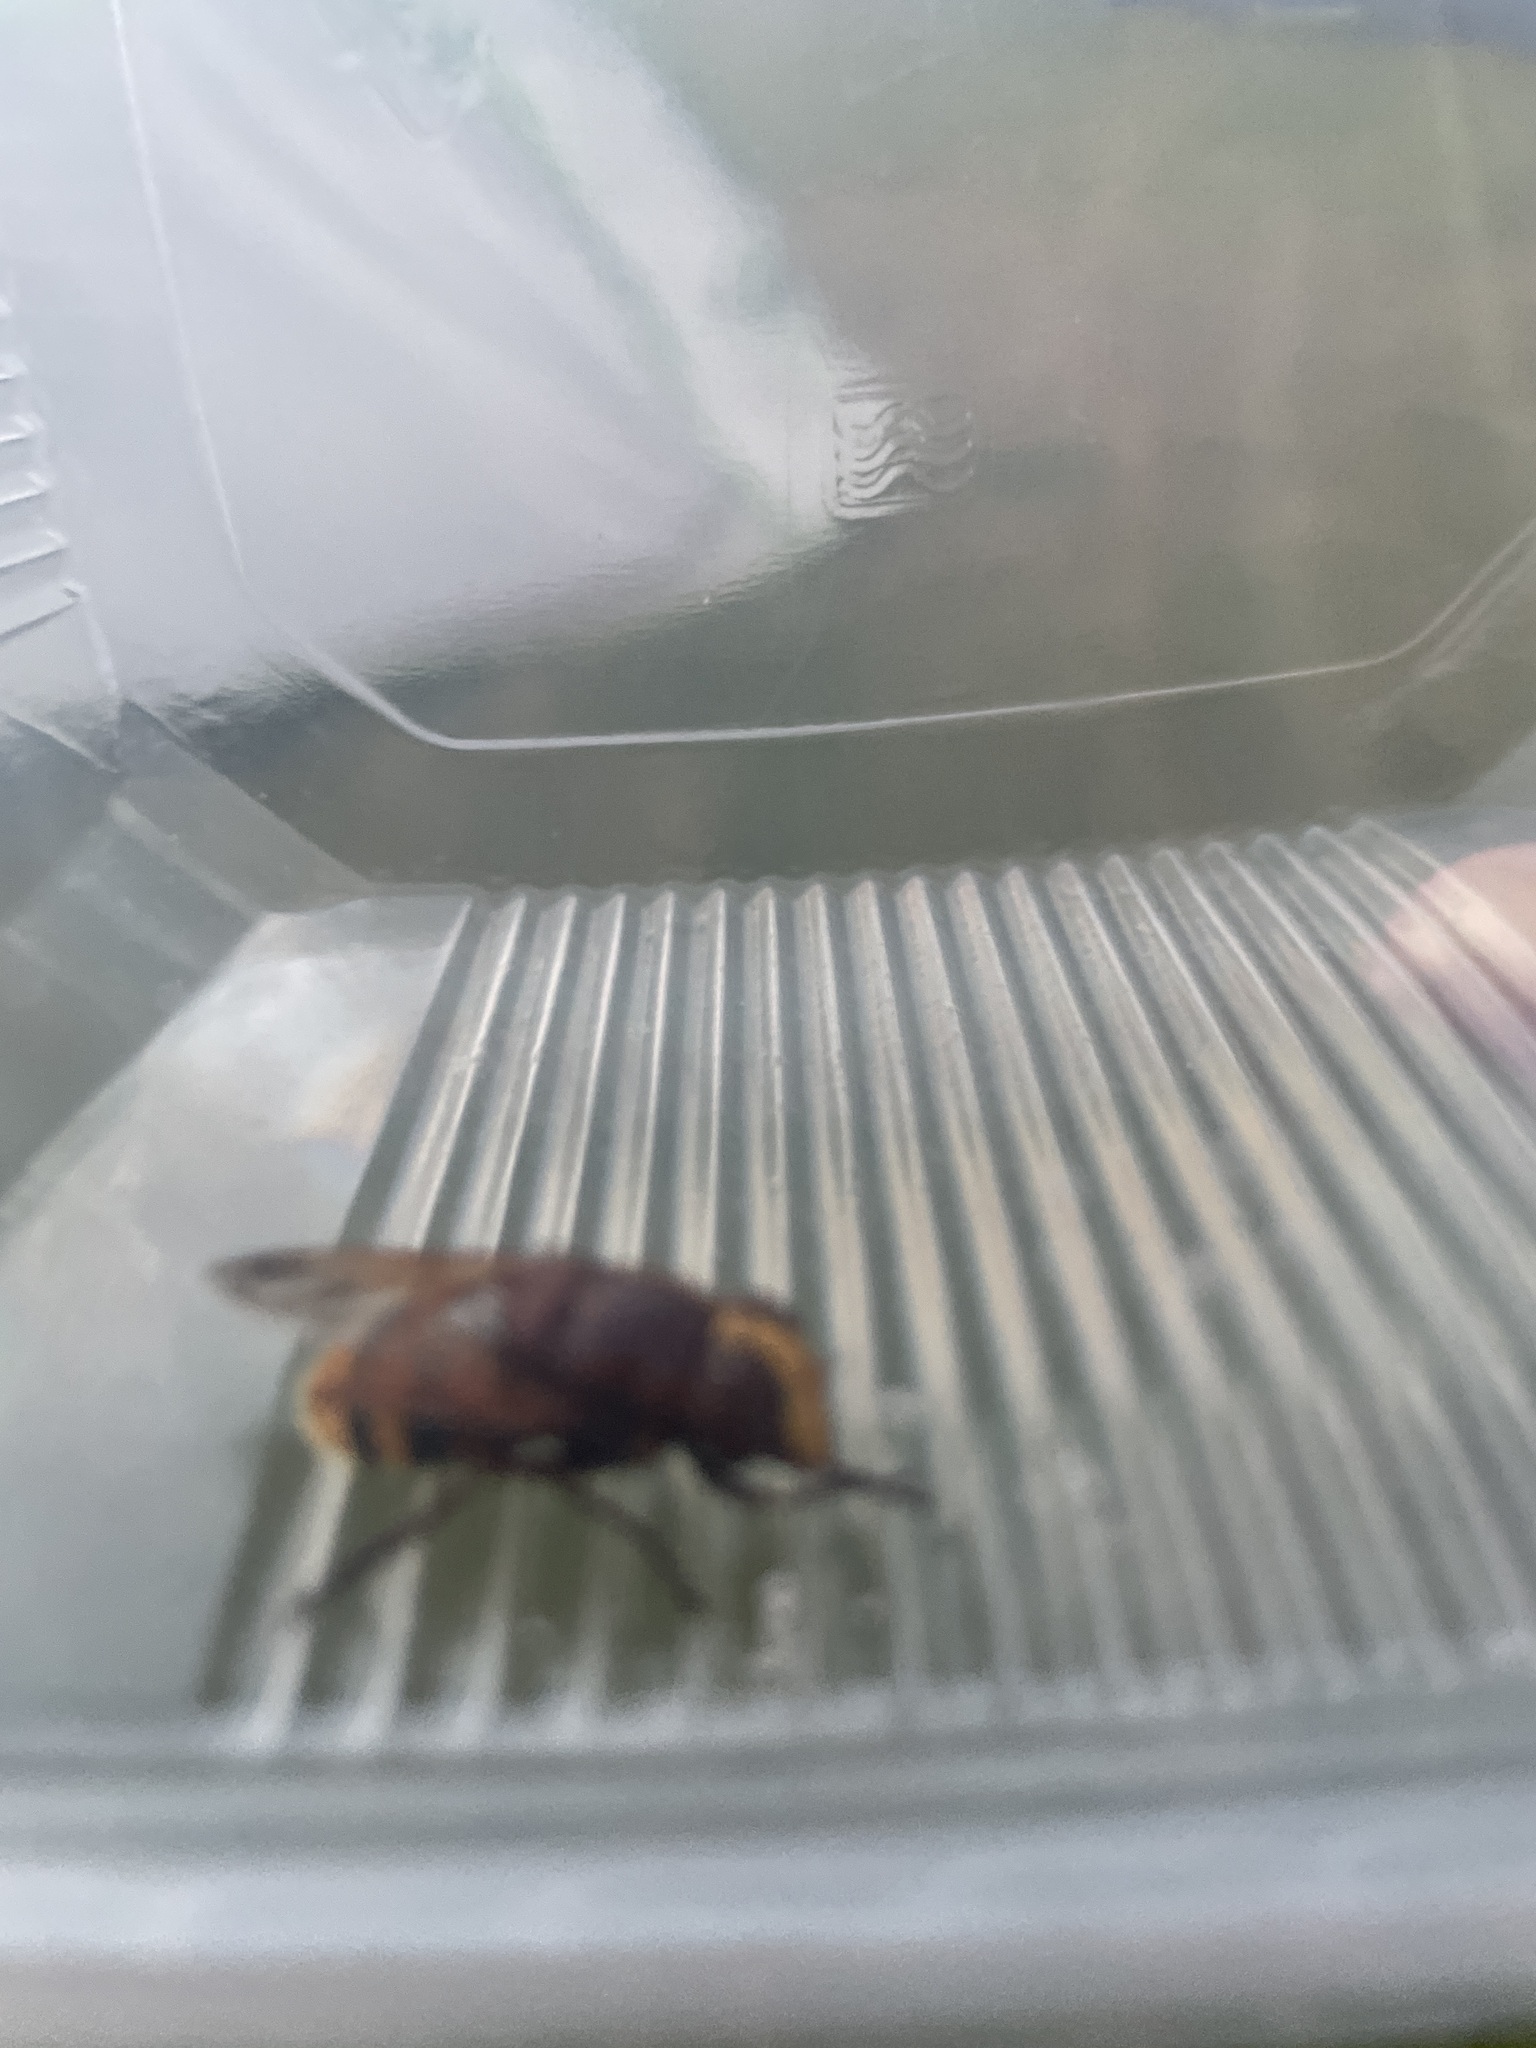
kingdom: Animalia
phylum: Arthropoda
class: Insecta
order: Diptera
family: Syrphidae
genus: Volucella
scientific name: Volucella zonaria
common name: Hornet hoverfly
